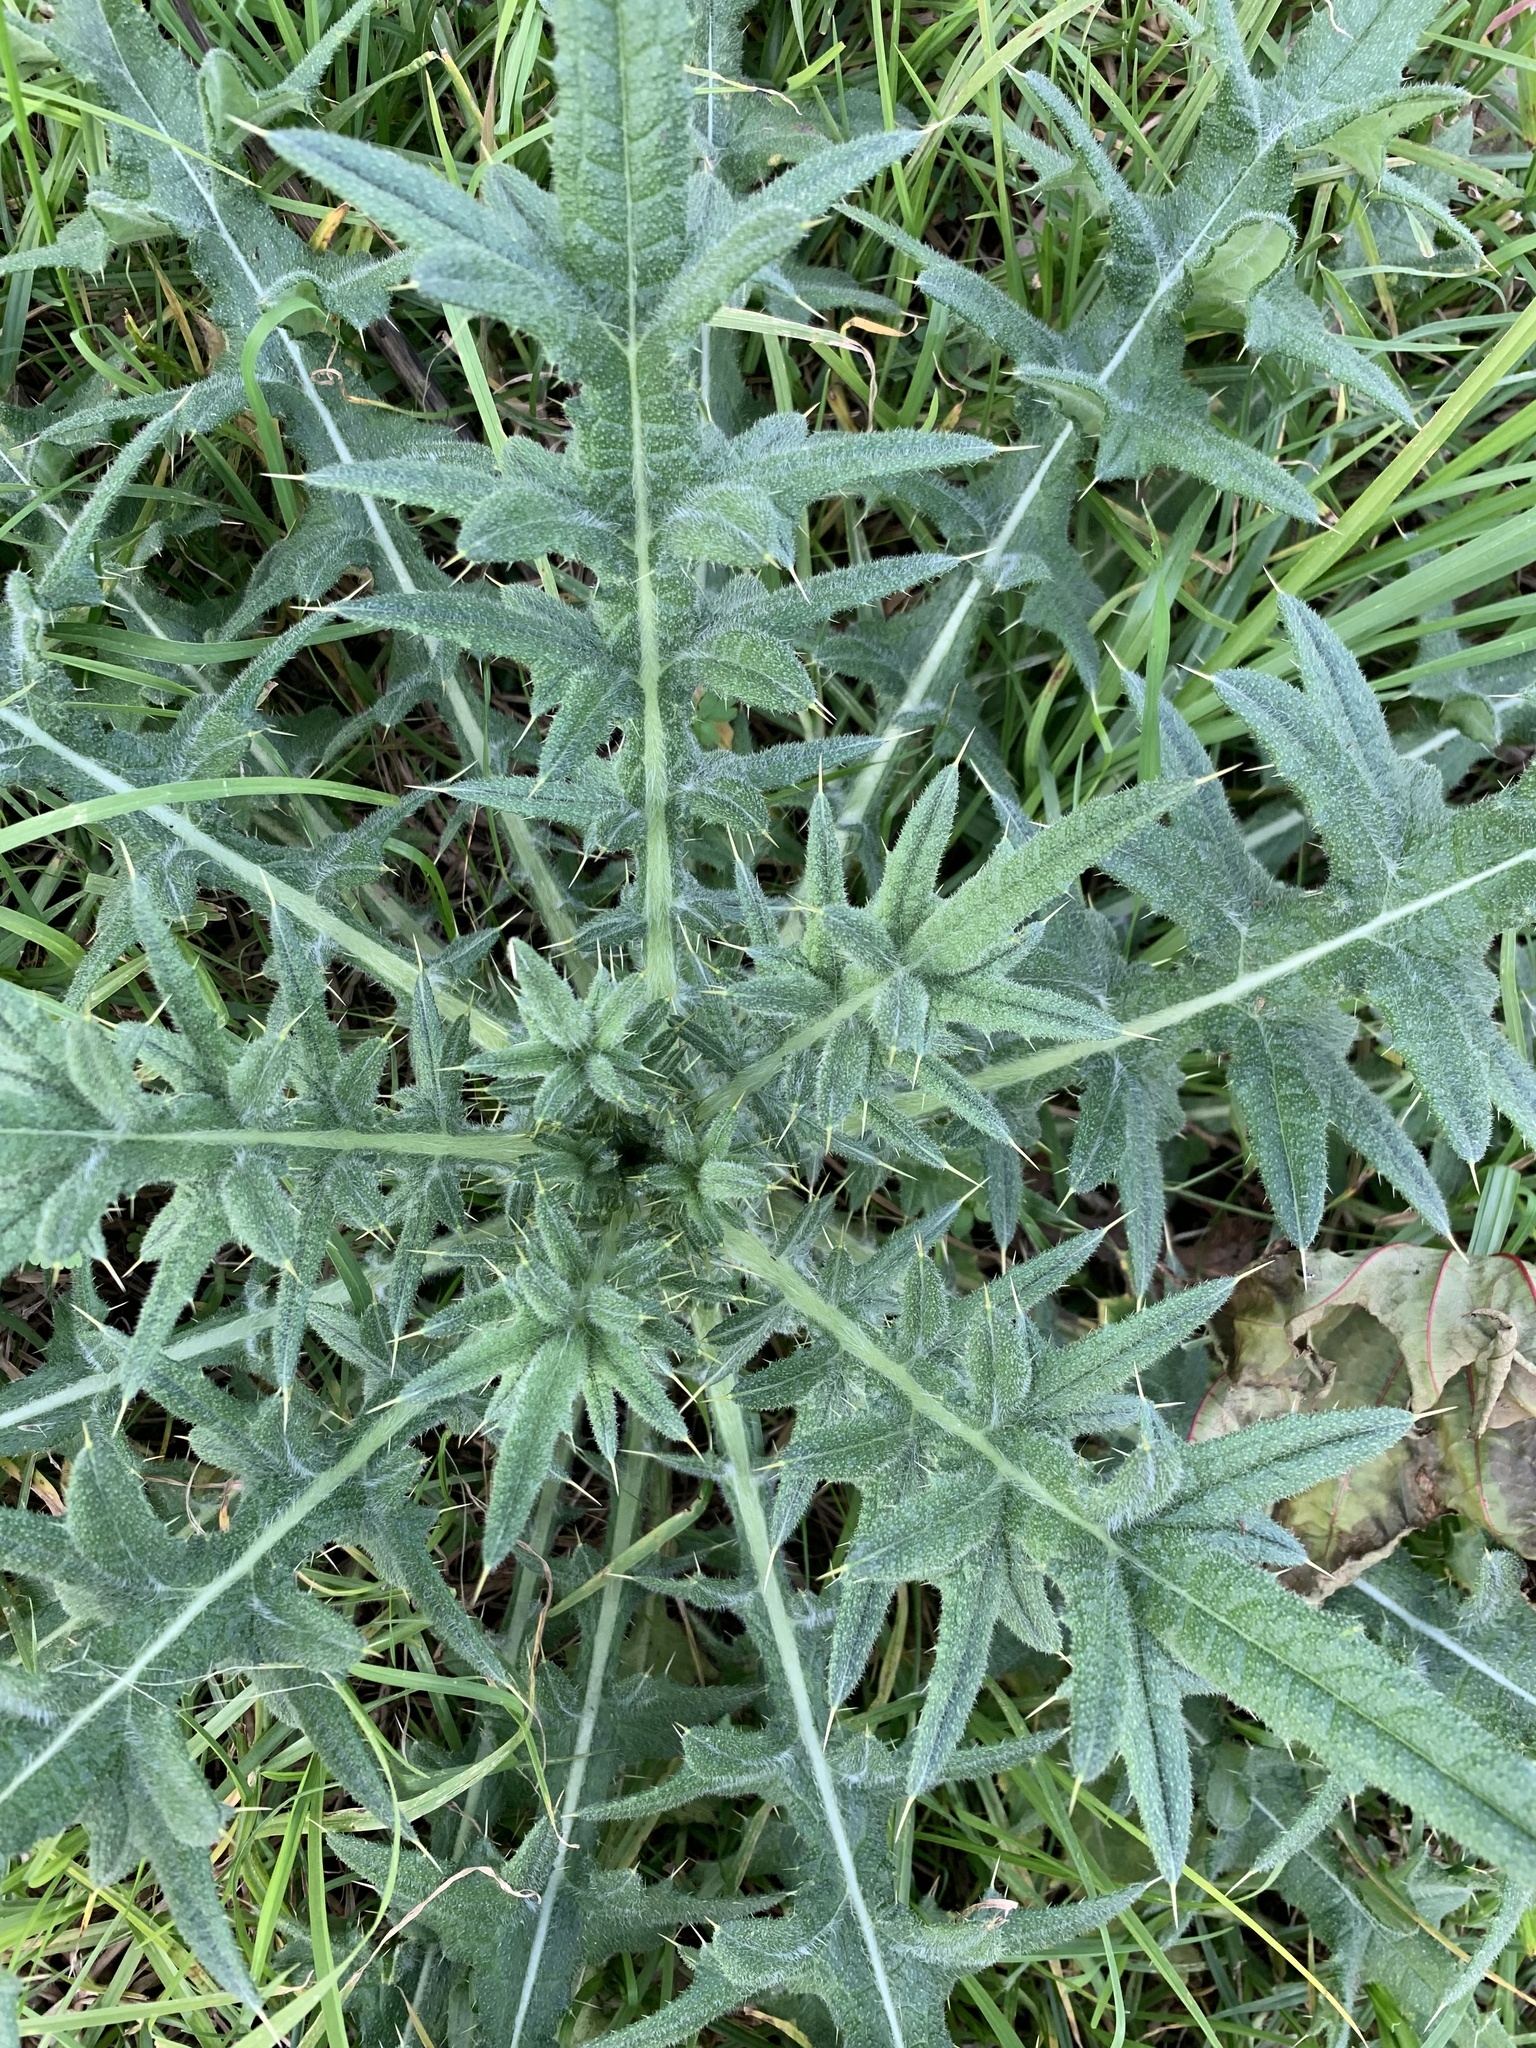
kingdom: Plantae
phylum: Tracheophyta
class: Magnoliopsida
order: Asterales
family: Asteraceae
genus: Cirsium
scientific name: Cirsium vulgare
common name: Bull thistle
